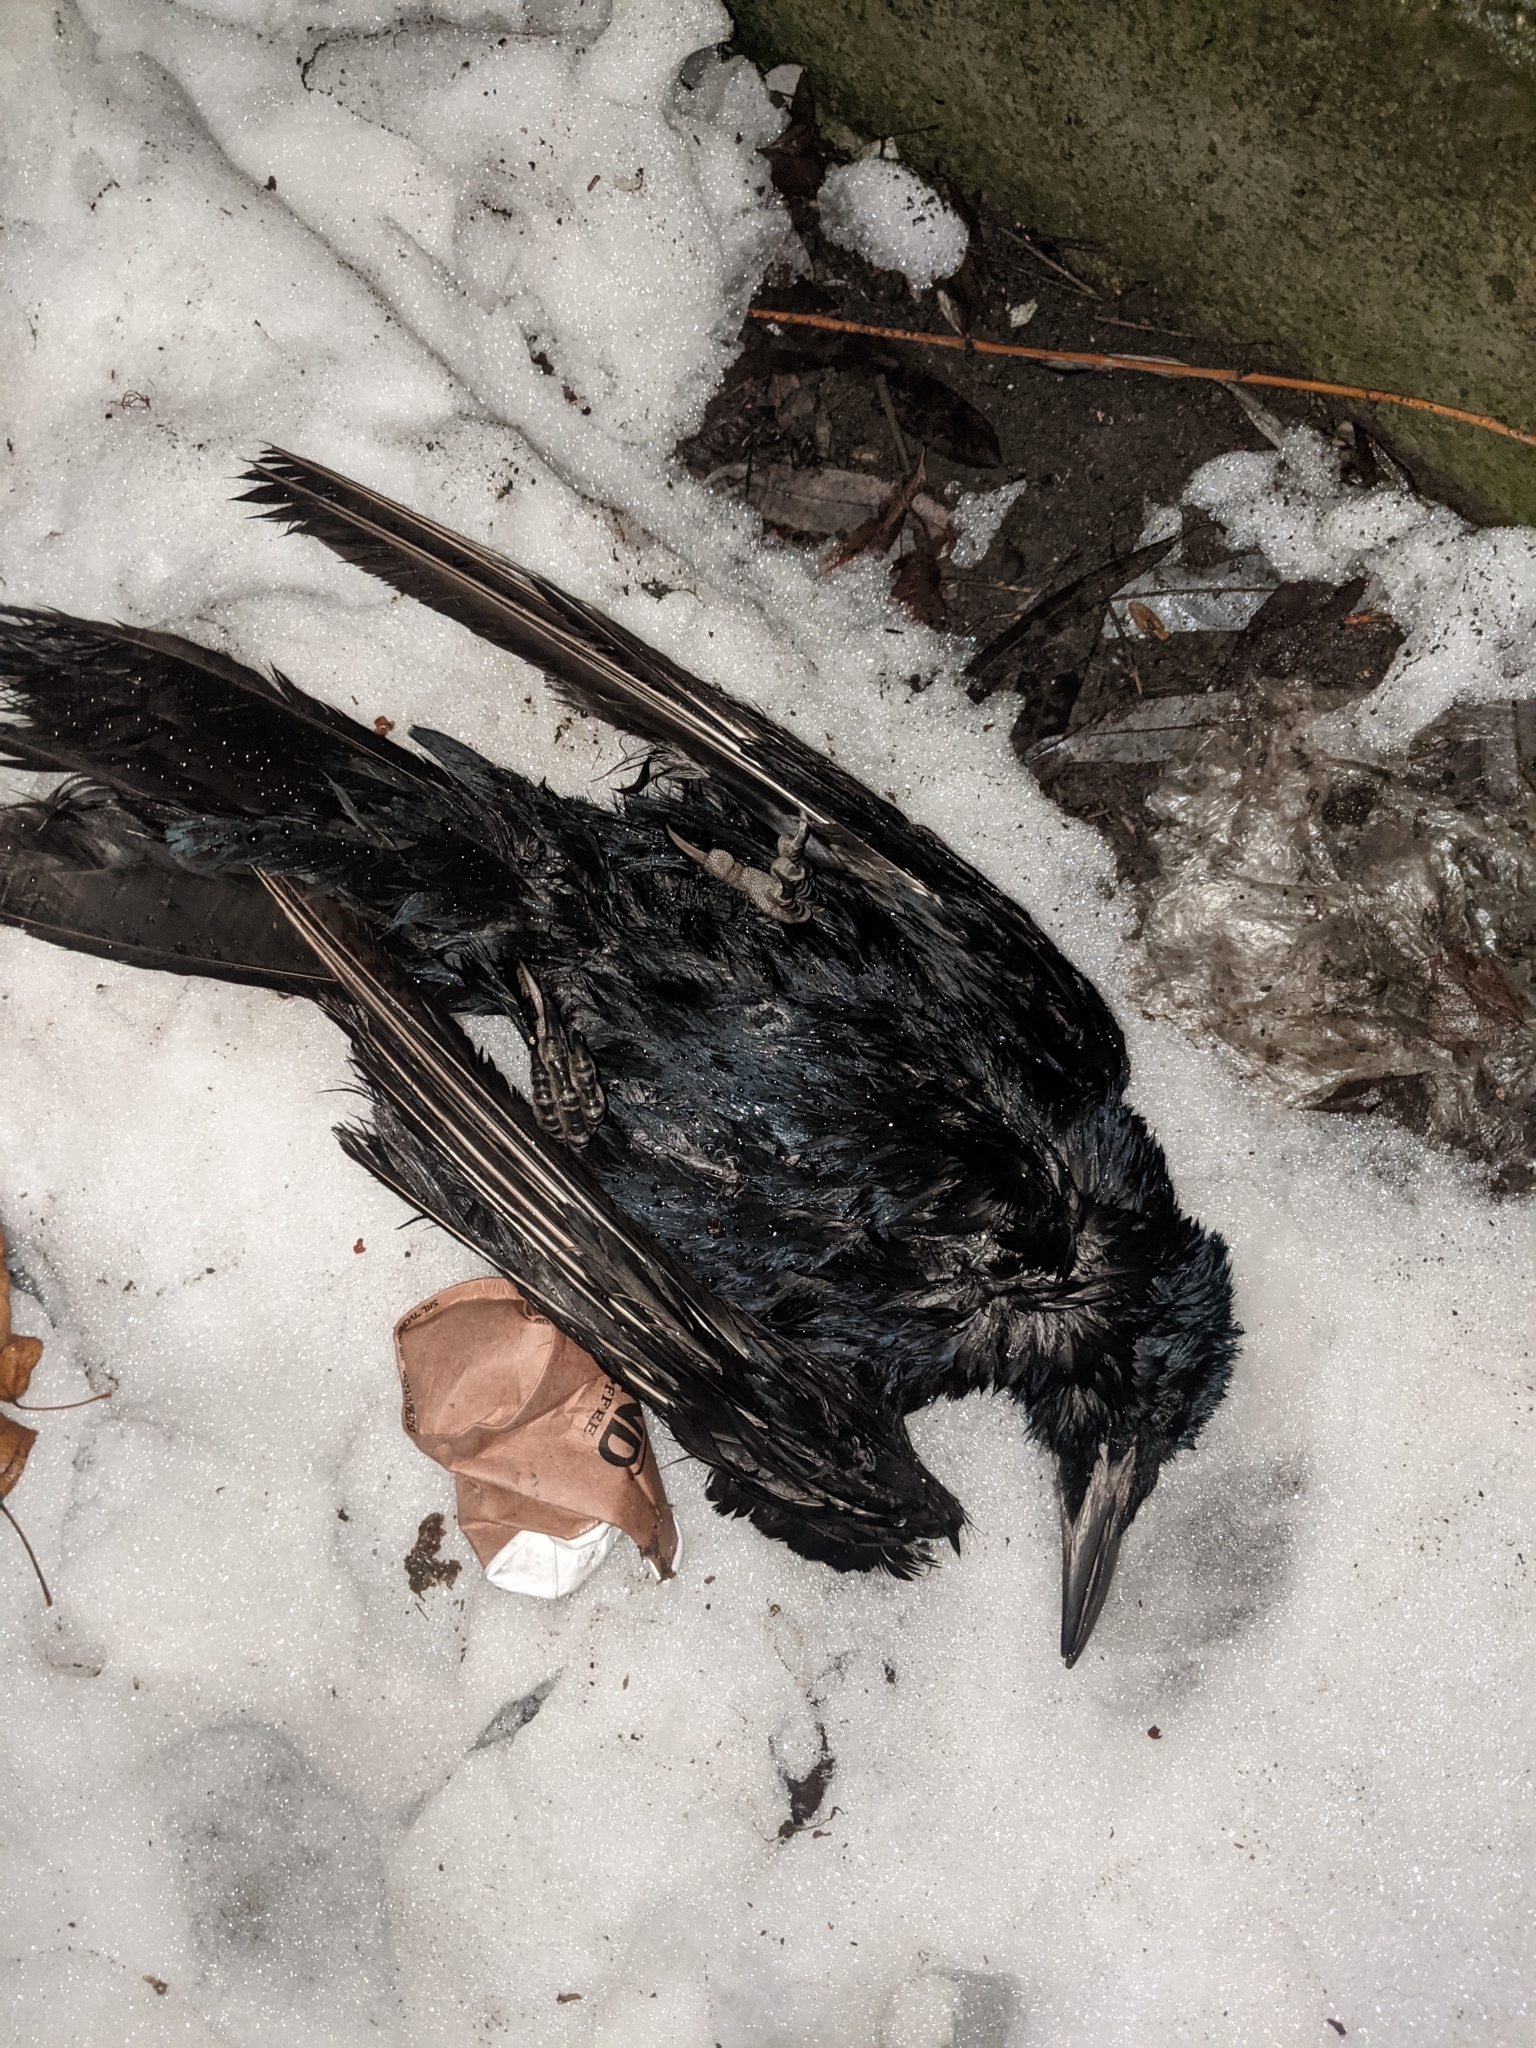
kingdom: Animalia
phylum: Chordata
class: Aves
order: Passeriformes
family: Corvidae
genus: Corvus
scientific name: Corvus frugilegus
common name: Rook
